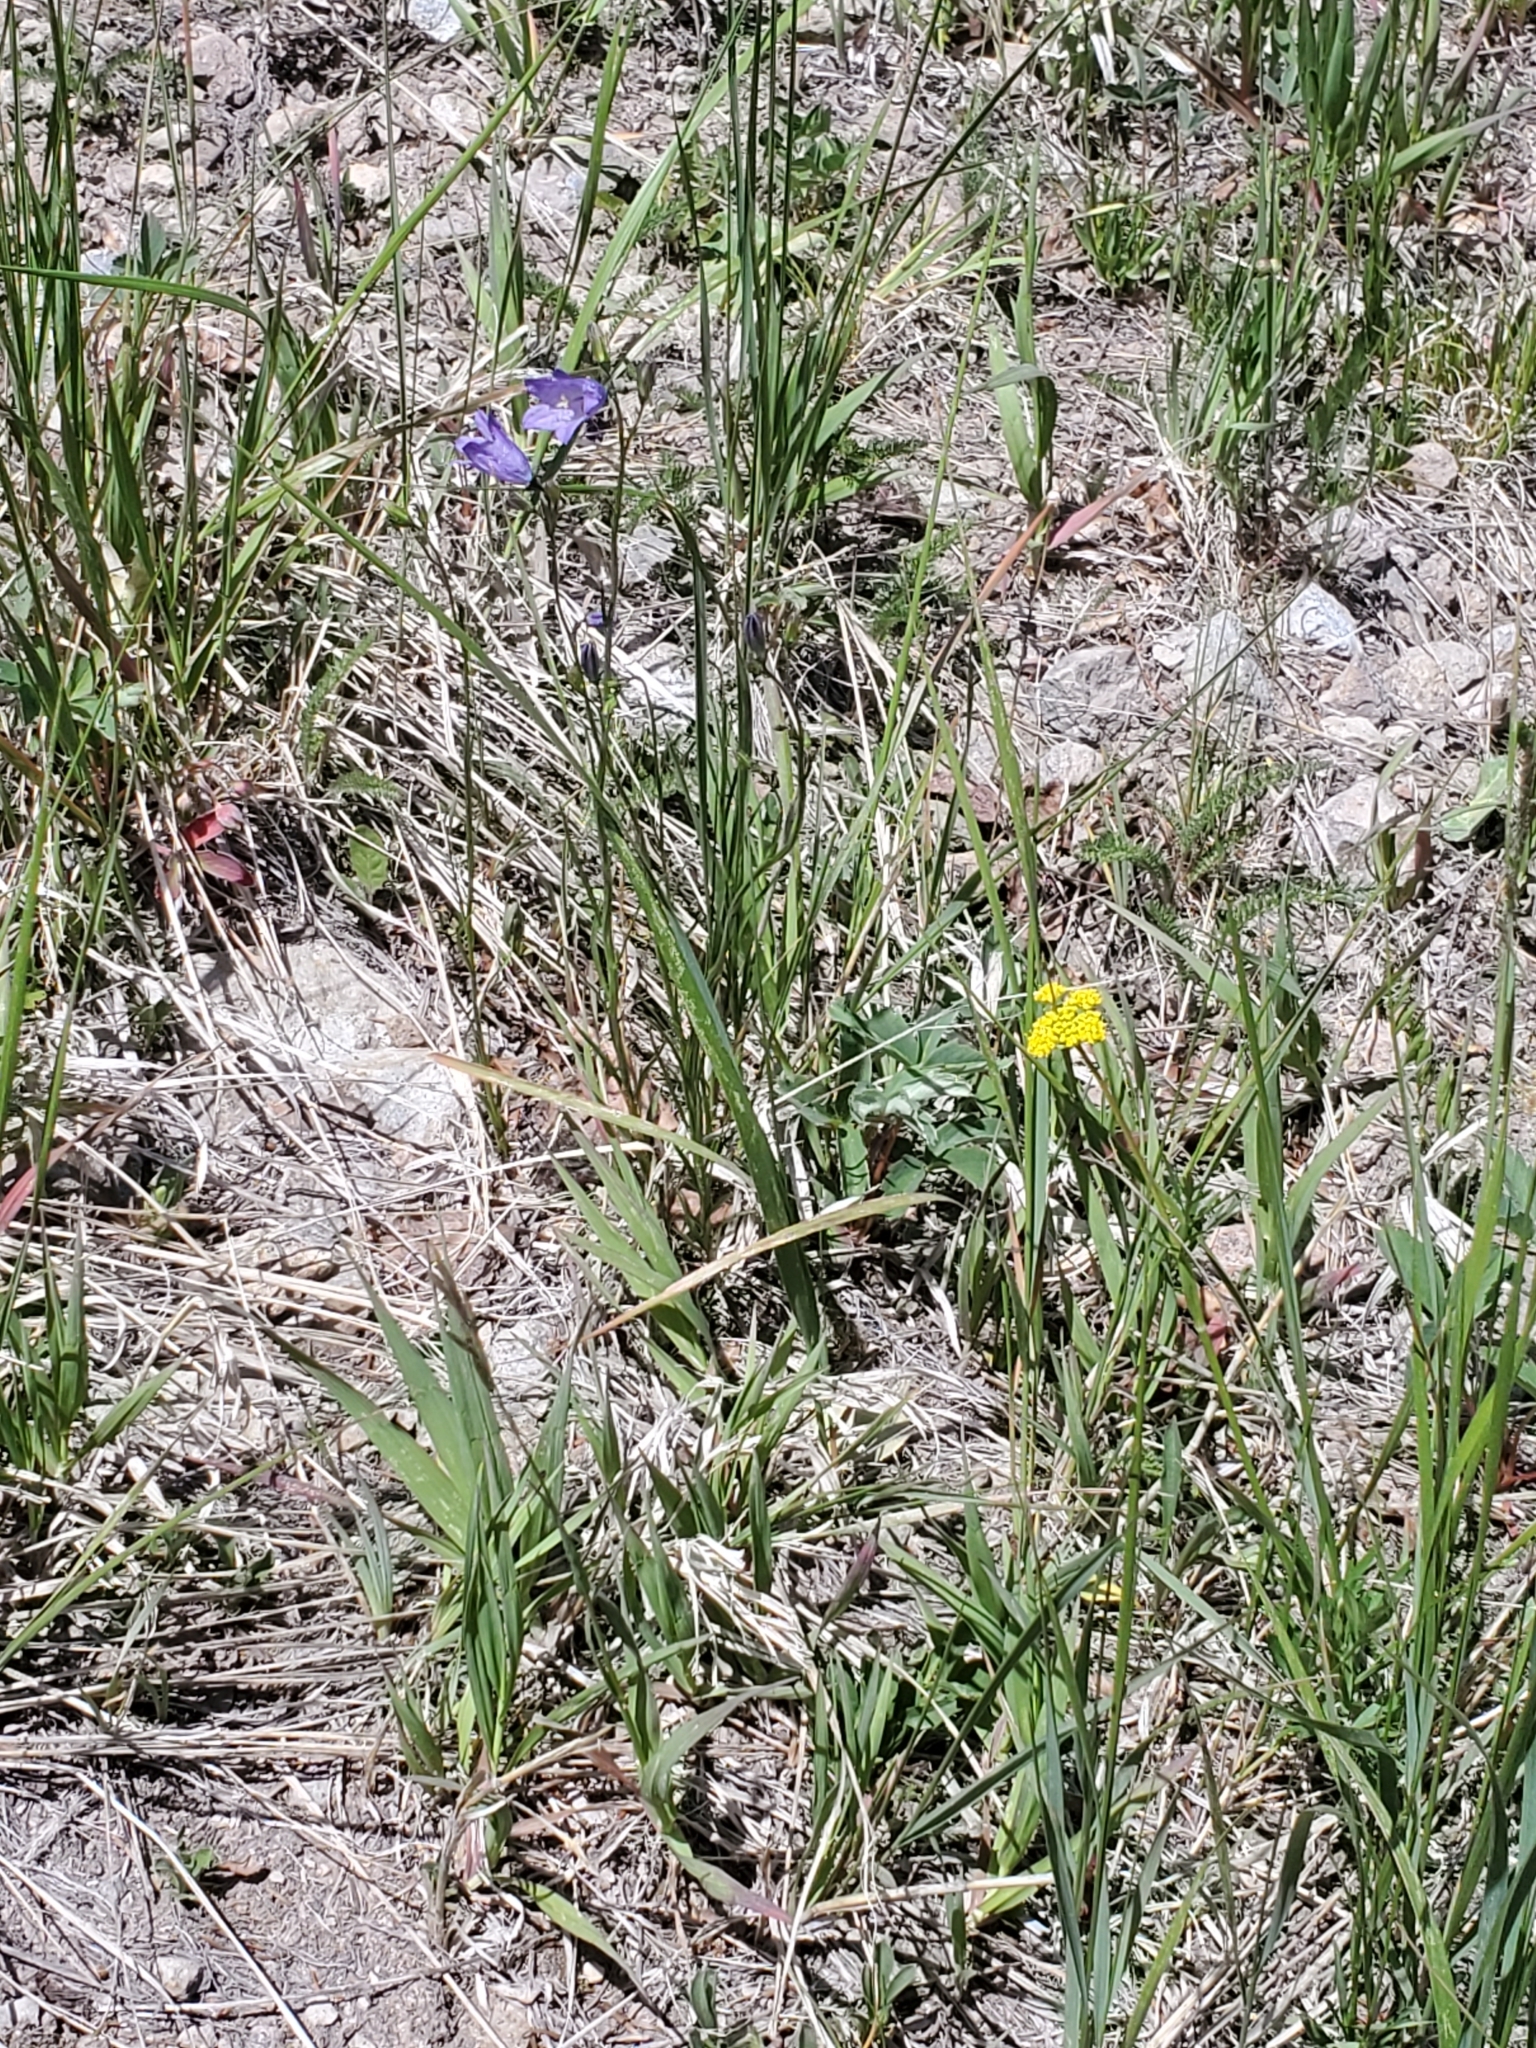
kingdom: Plantae
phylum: Tracheophyta
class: Magnoliopsida
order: Asterales
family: Campanulaceae
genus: Campanula
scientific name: Campanula petiolata
